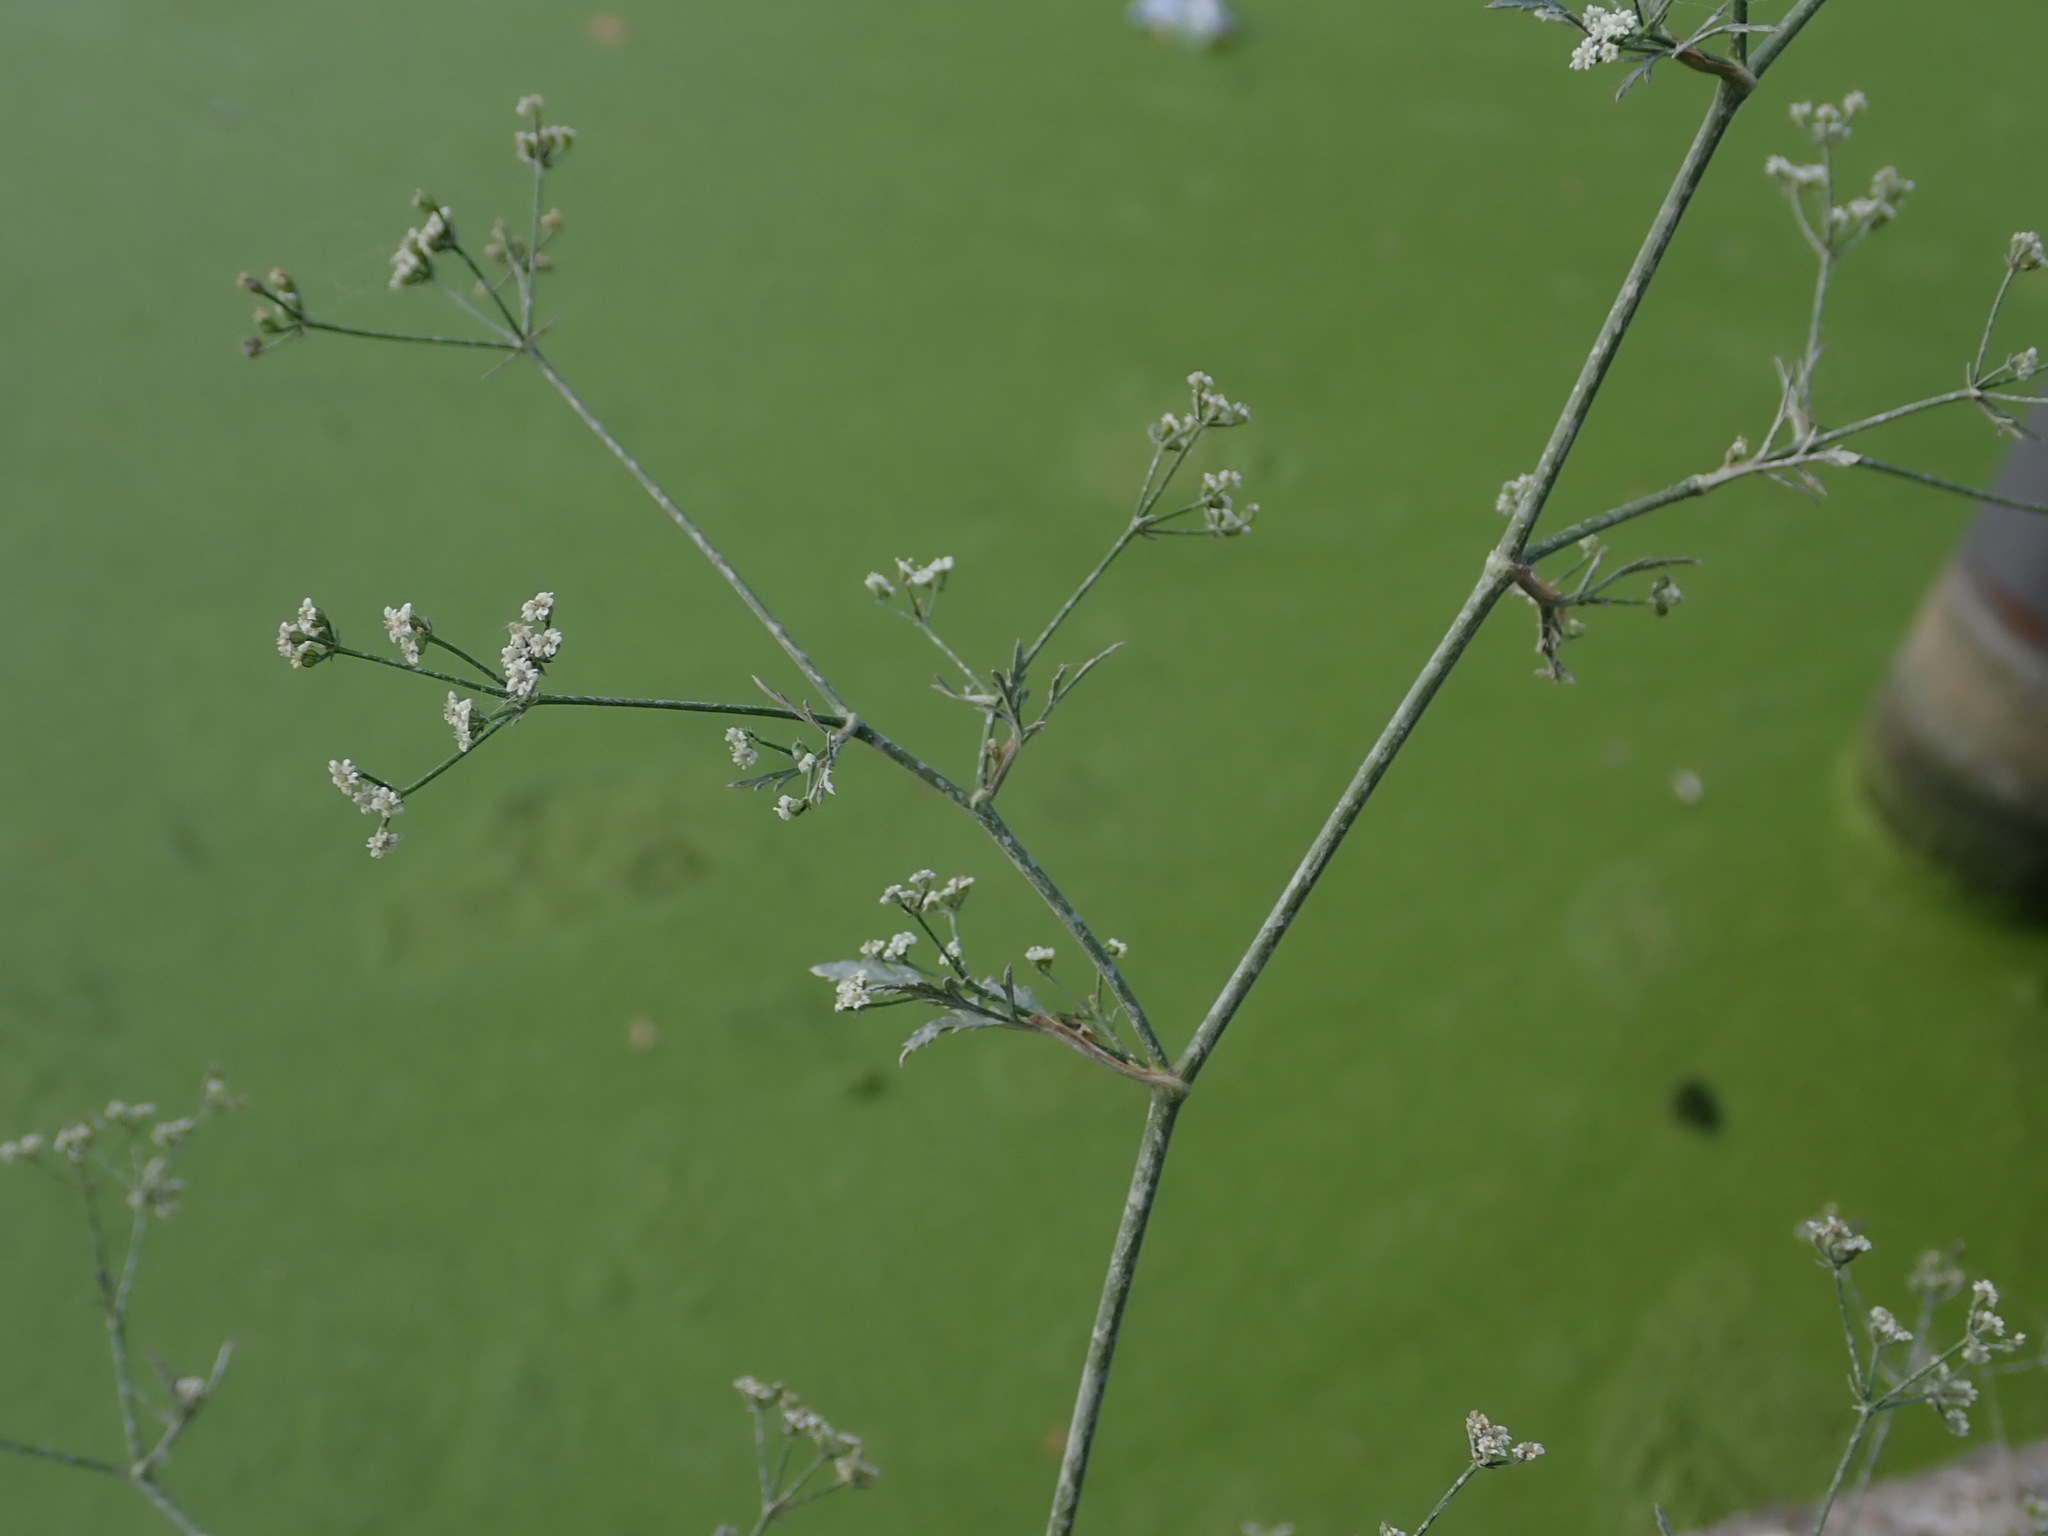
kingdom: Plantae
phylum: Tracheophyta
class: Magnoliopsida
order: Apiales
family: Apiaceae
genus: Sison
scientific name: Sison amomum
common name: Stone-parsley
